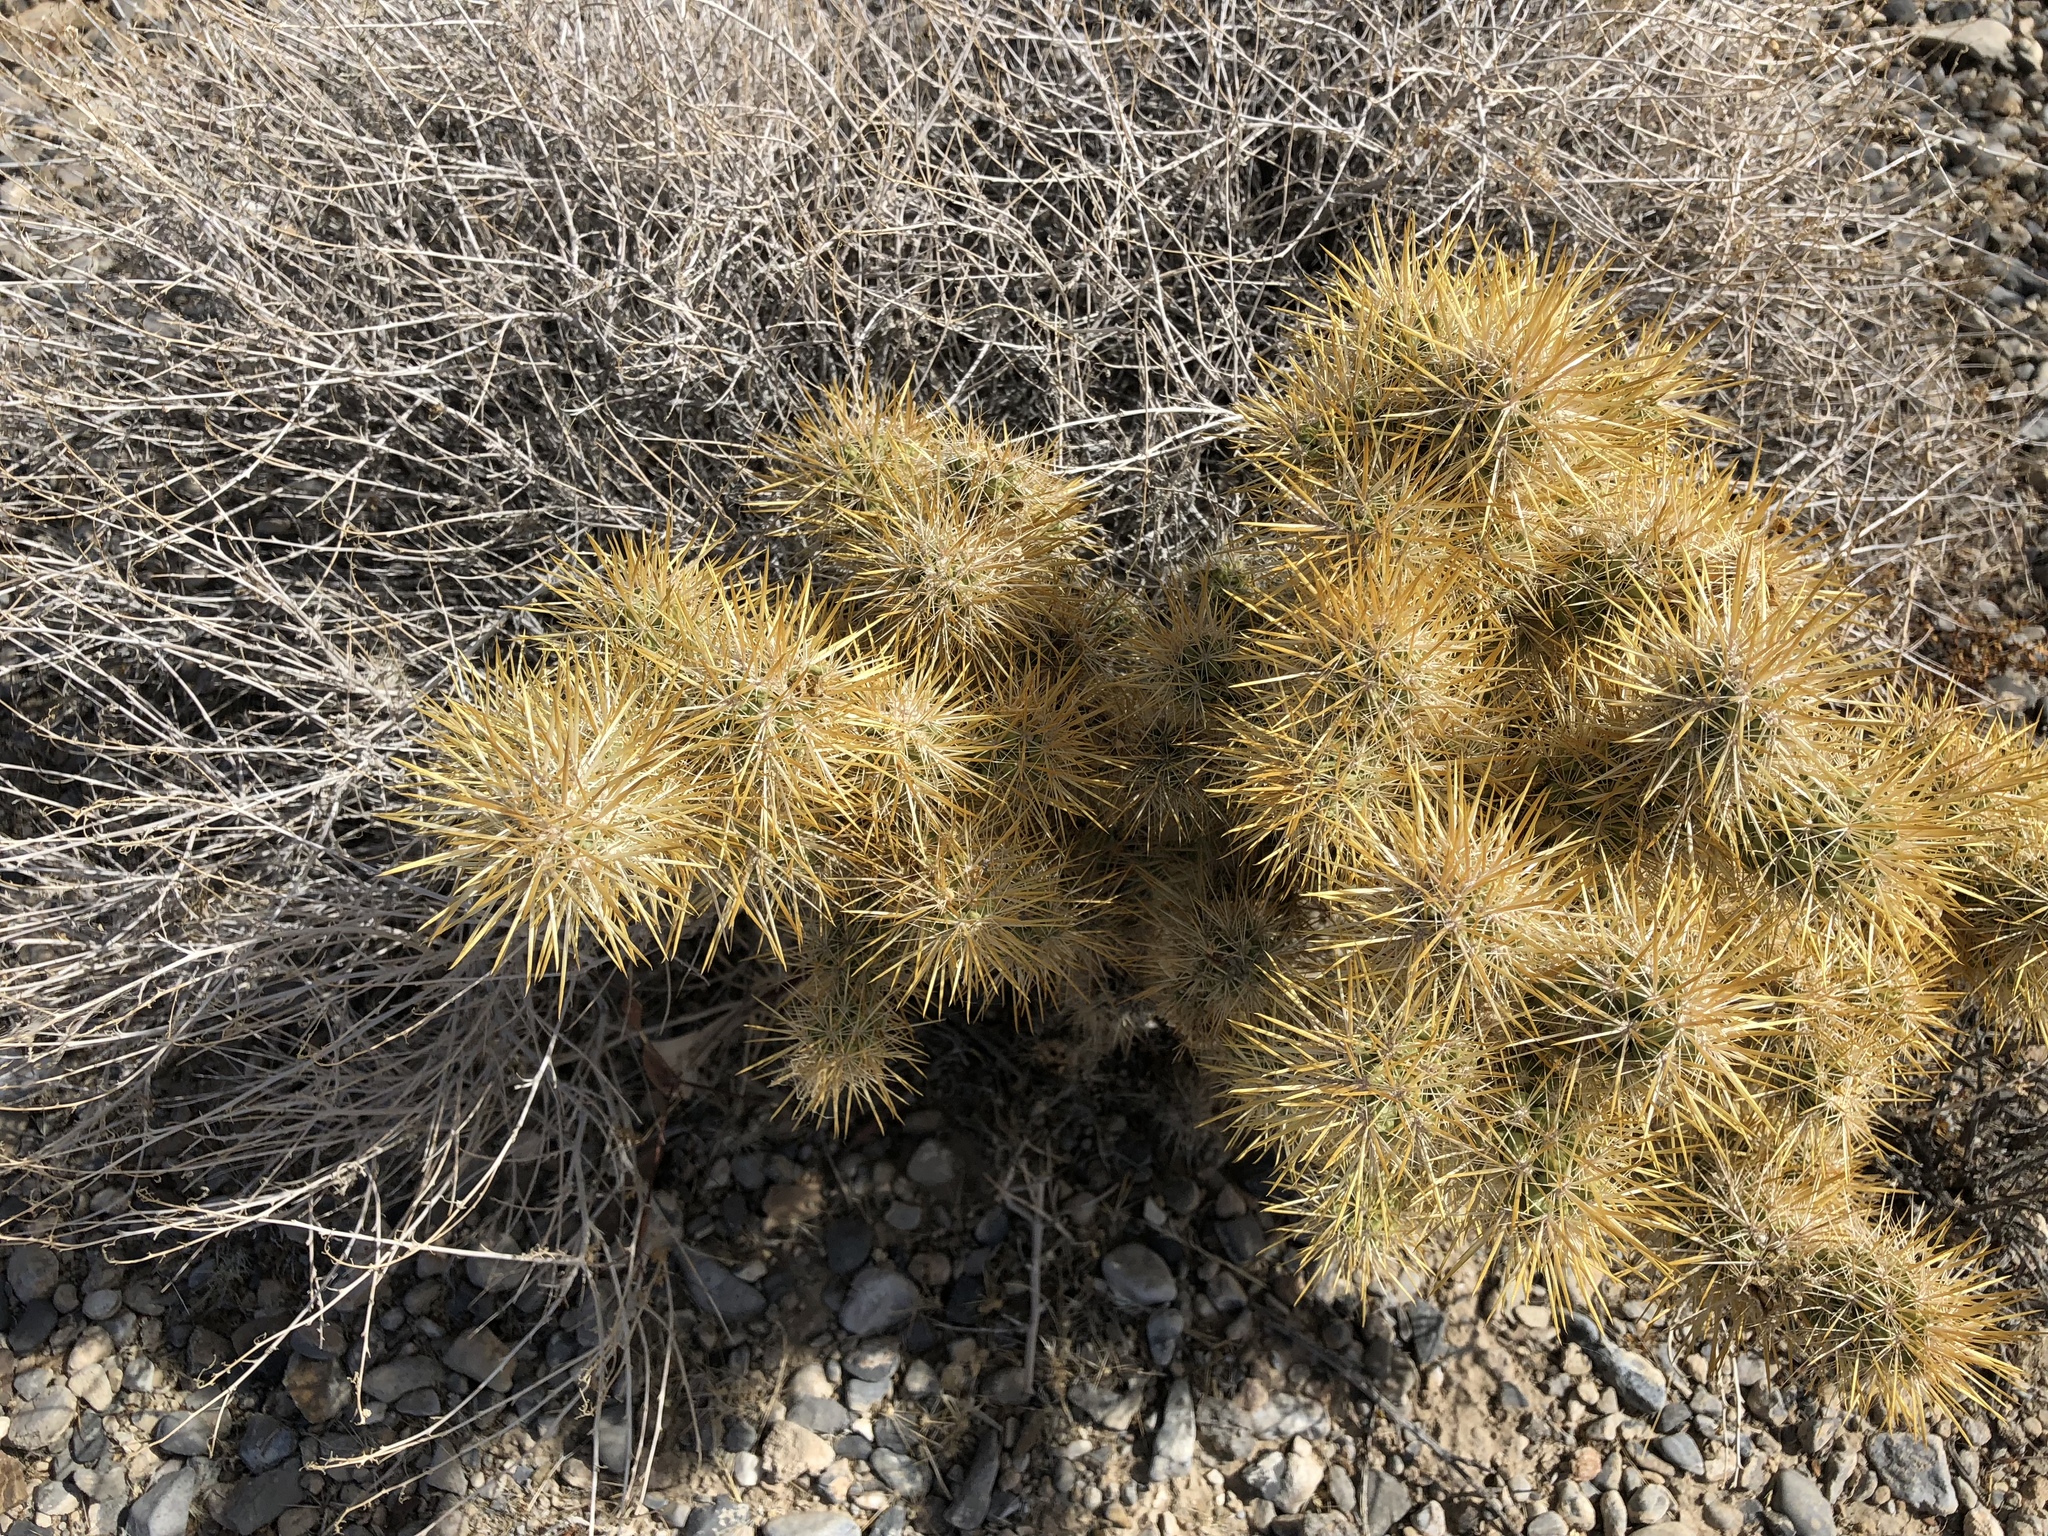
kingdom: Plantae
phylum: Tracheophyta
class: Magnoliopsida
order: Caryophyllales
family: Cactaceae
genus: Cylindropuntia
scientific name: Cylindropuntia echinocarpa
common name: Ground cholla
